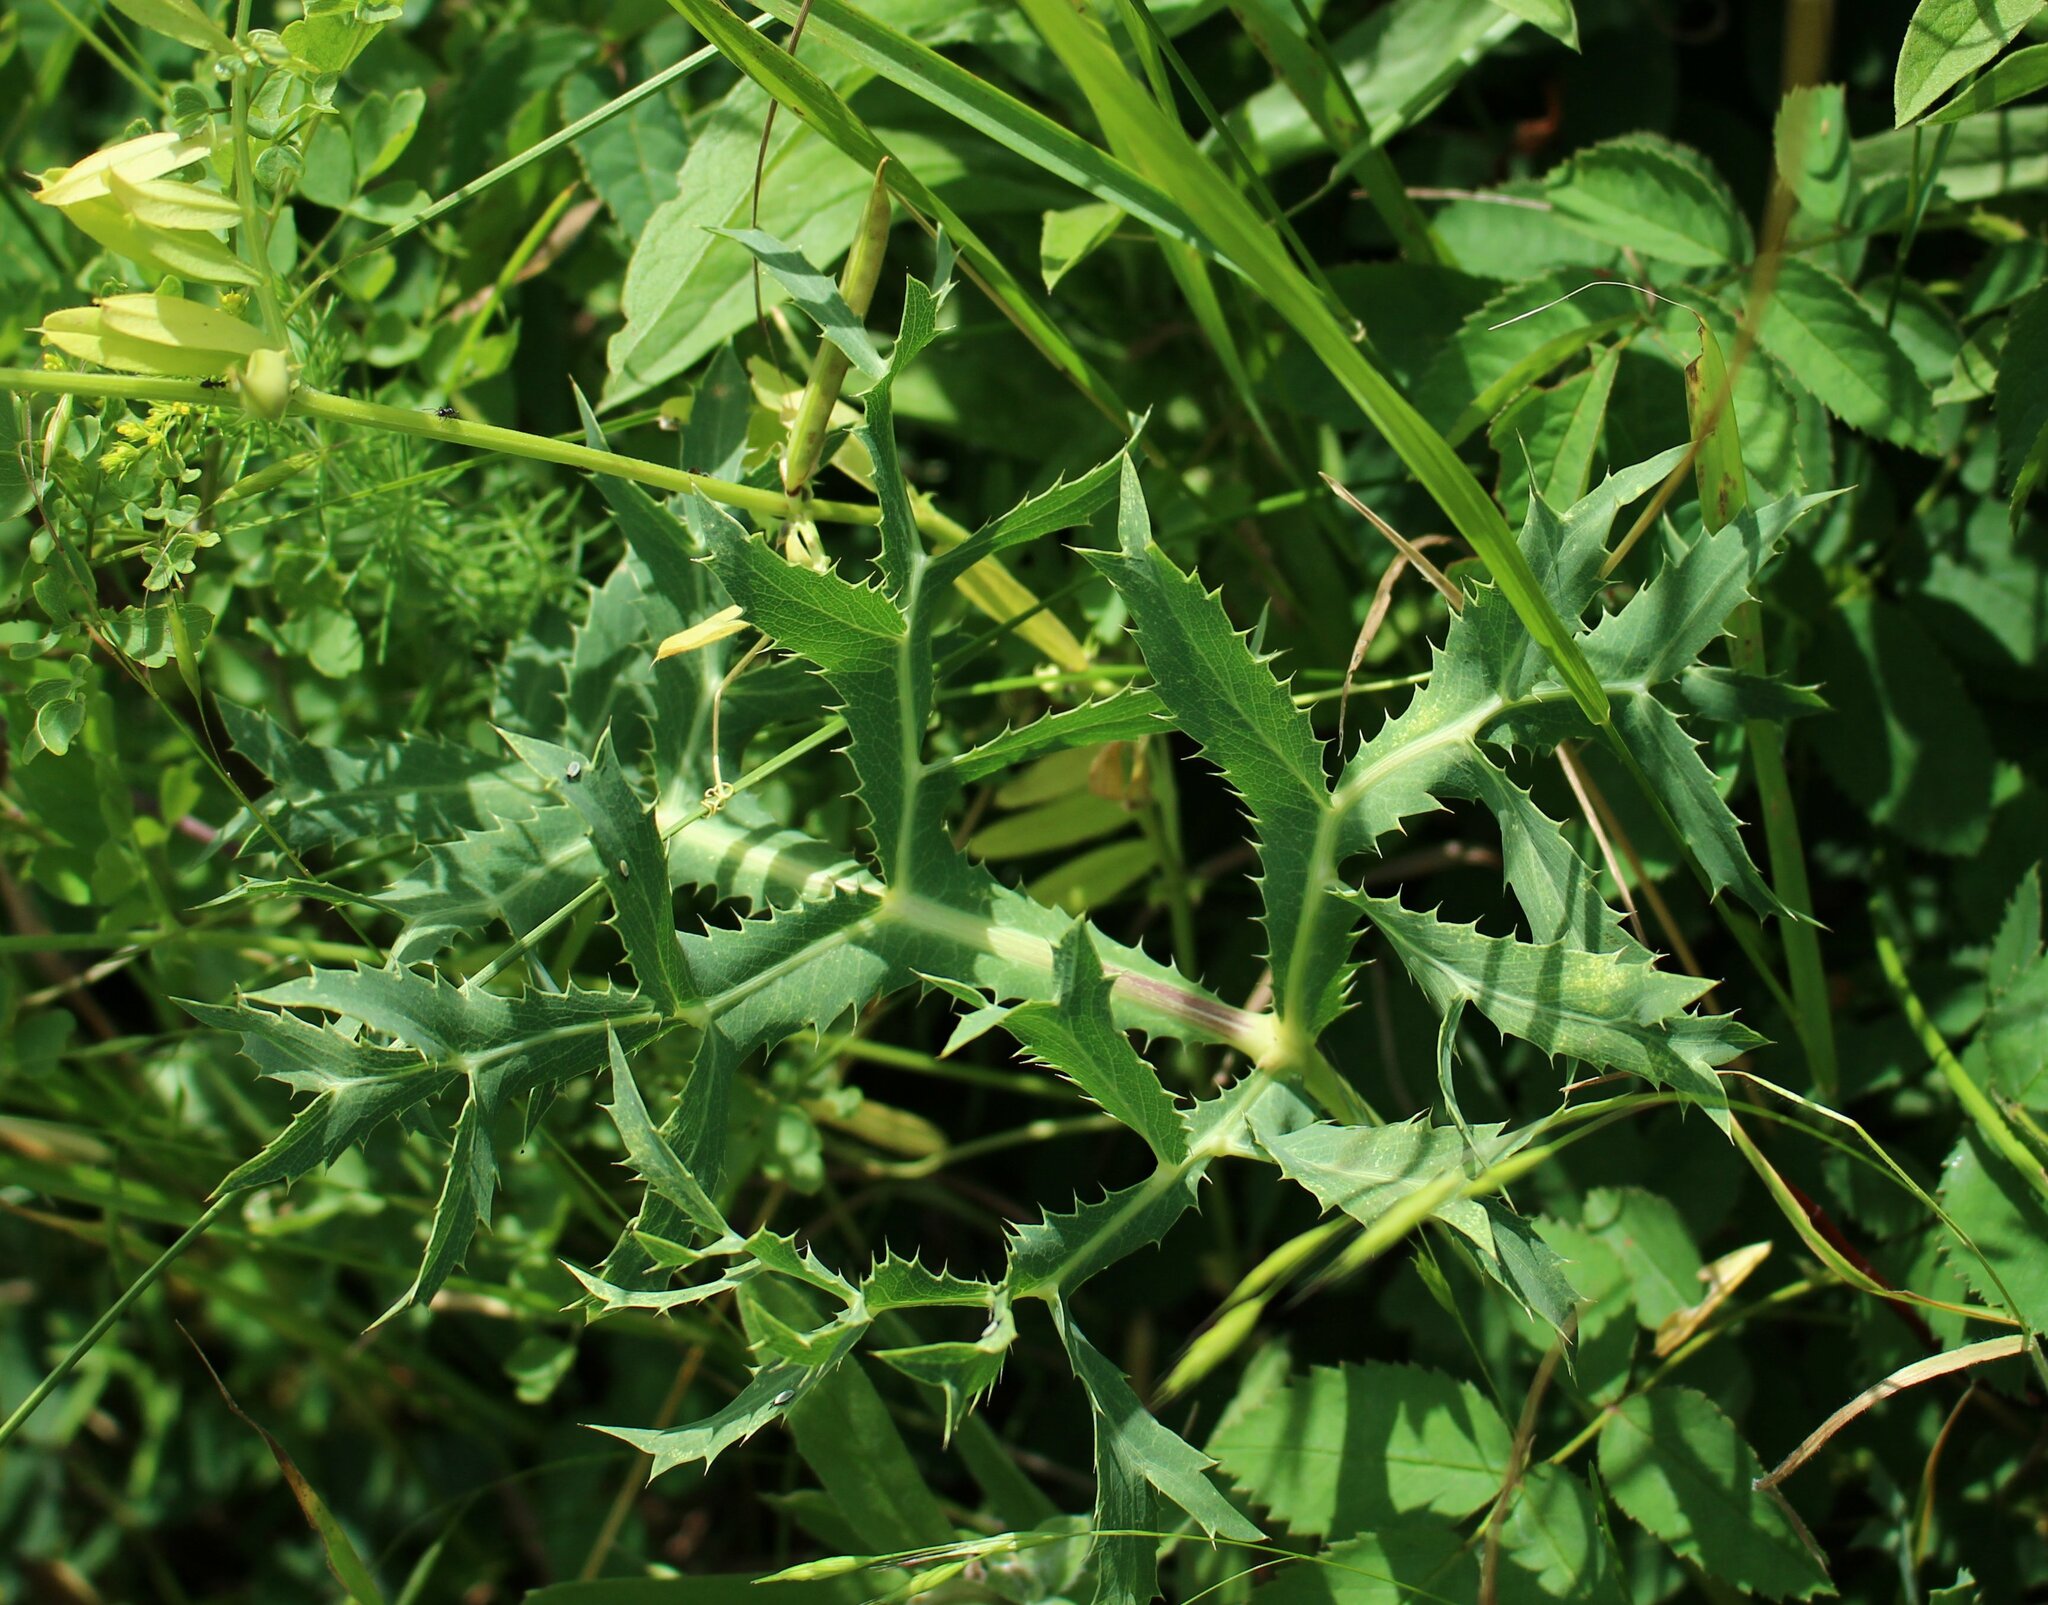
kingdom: Plantae
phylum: Tracheophyta
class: Magnoliopsida
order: Apiales
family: Apiaceae
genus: Eryngium
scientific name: Eryngium campestre
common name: Field eryngo
